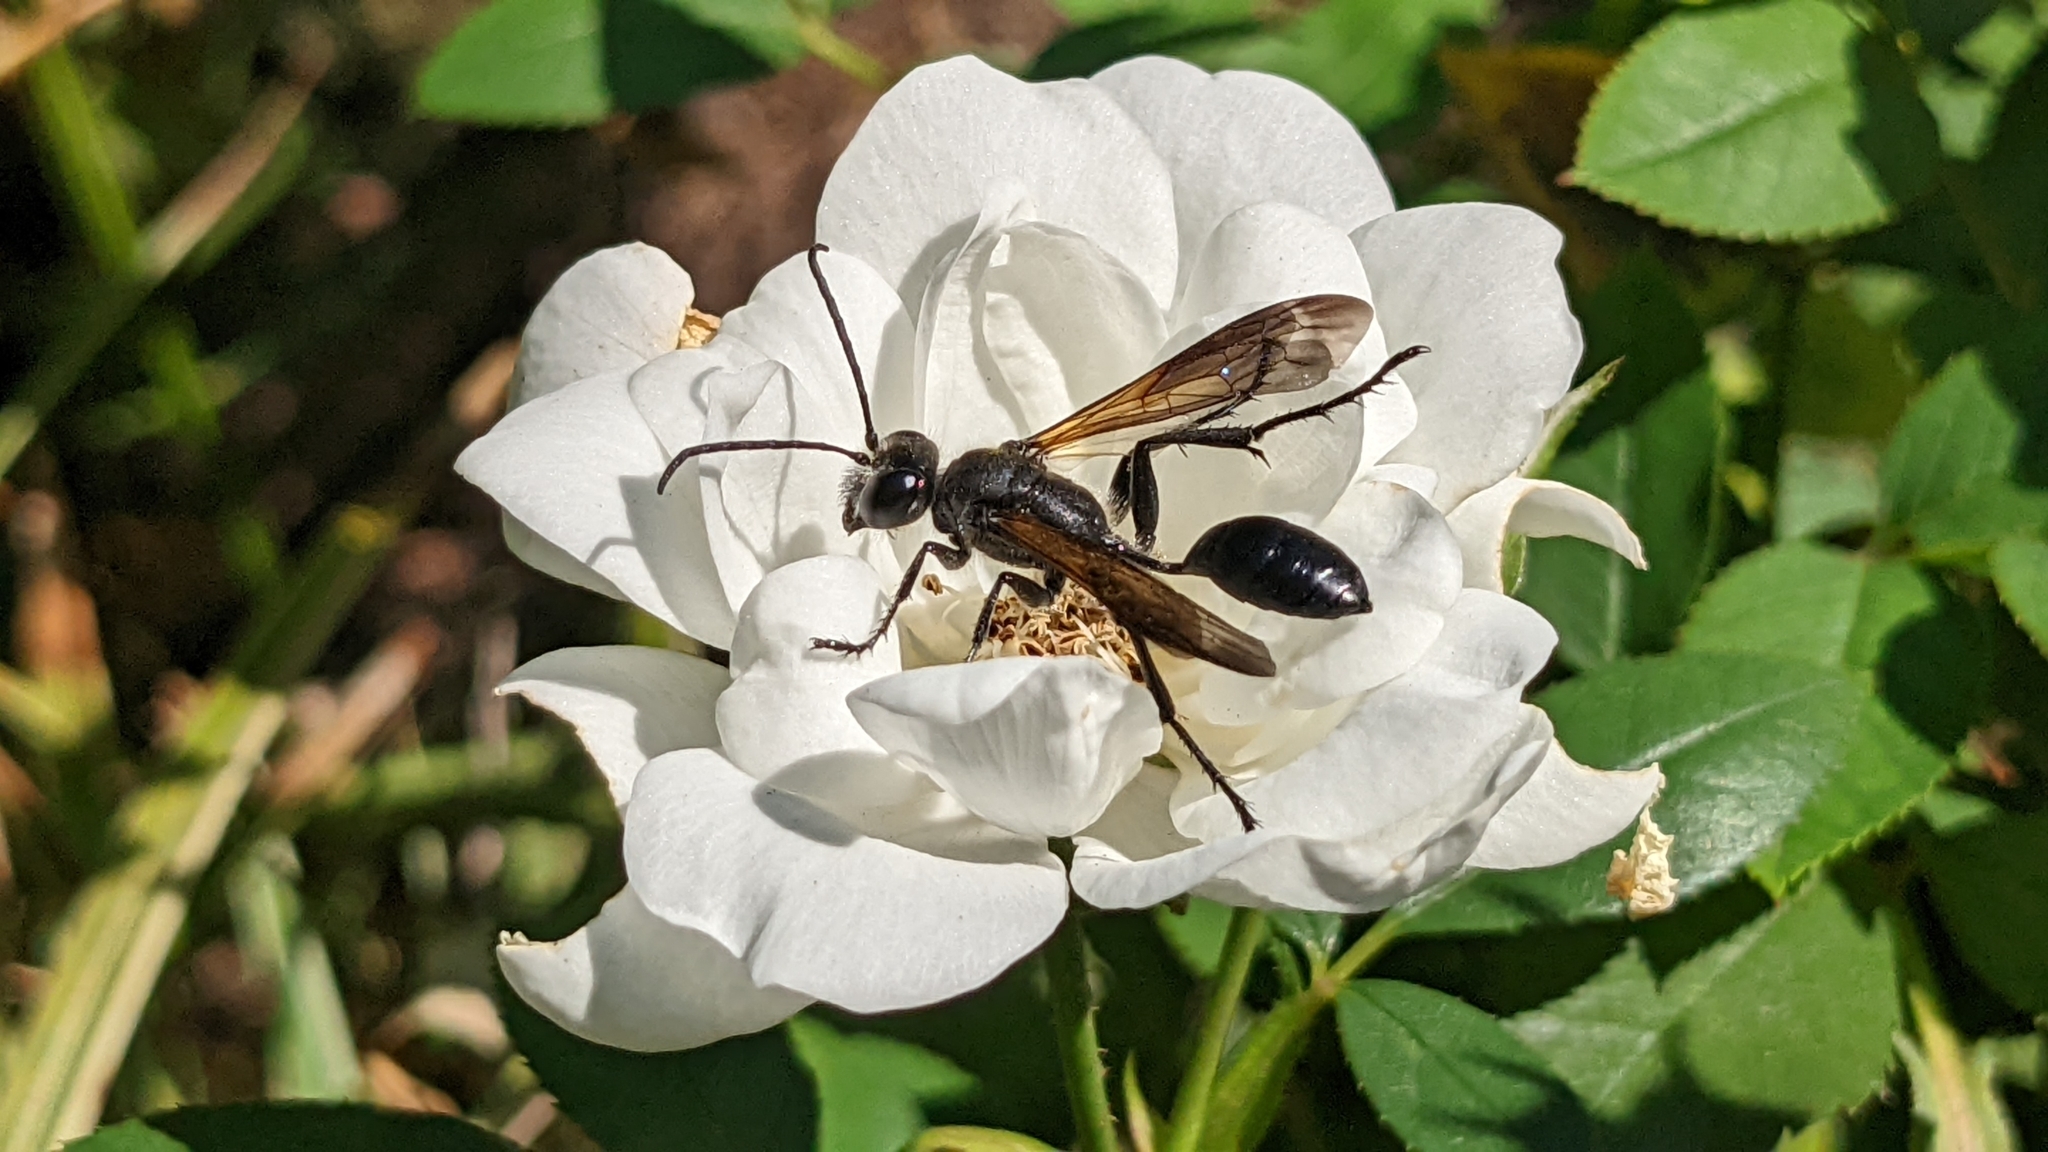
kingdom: Animalia
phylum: Arthropoda
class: Insecta
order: Hymenoptera
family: Sphecidae
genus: Isodontia
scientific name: Isodontia mexicana
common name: Mud dauber
